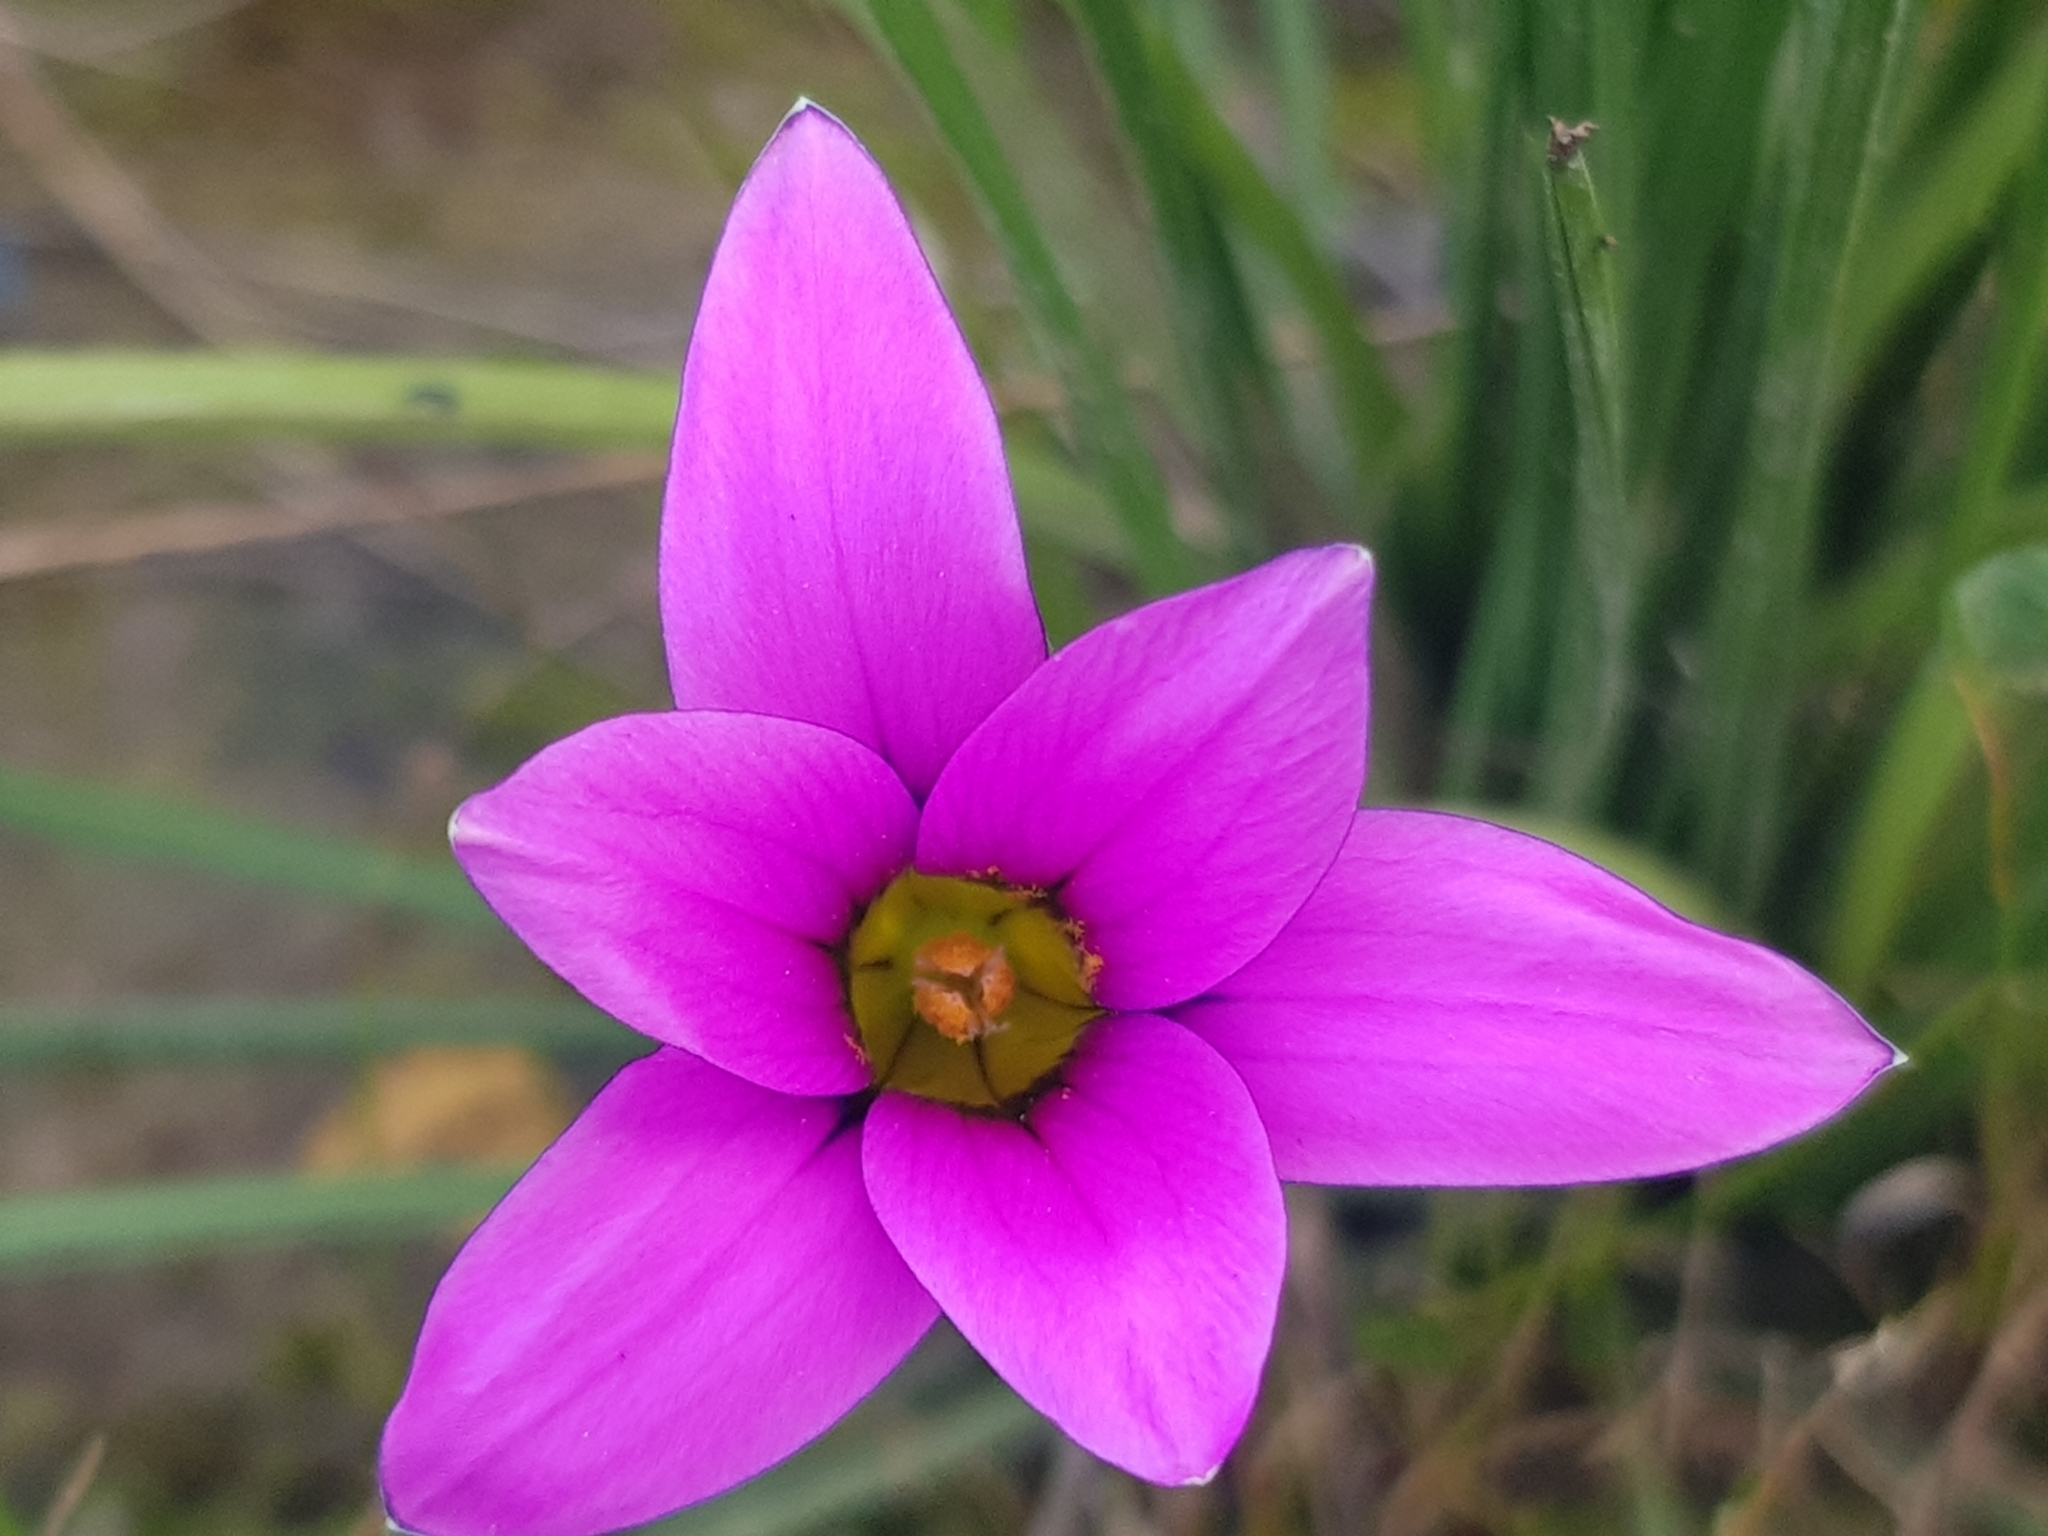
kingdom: Plantae
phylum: Tracheophyta
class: Liliopsida
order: Asparagales
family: Iridaceae
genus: Romulea
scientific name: Romulea rosea
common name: Oniongrass
